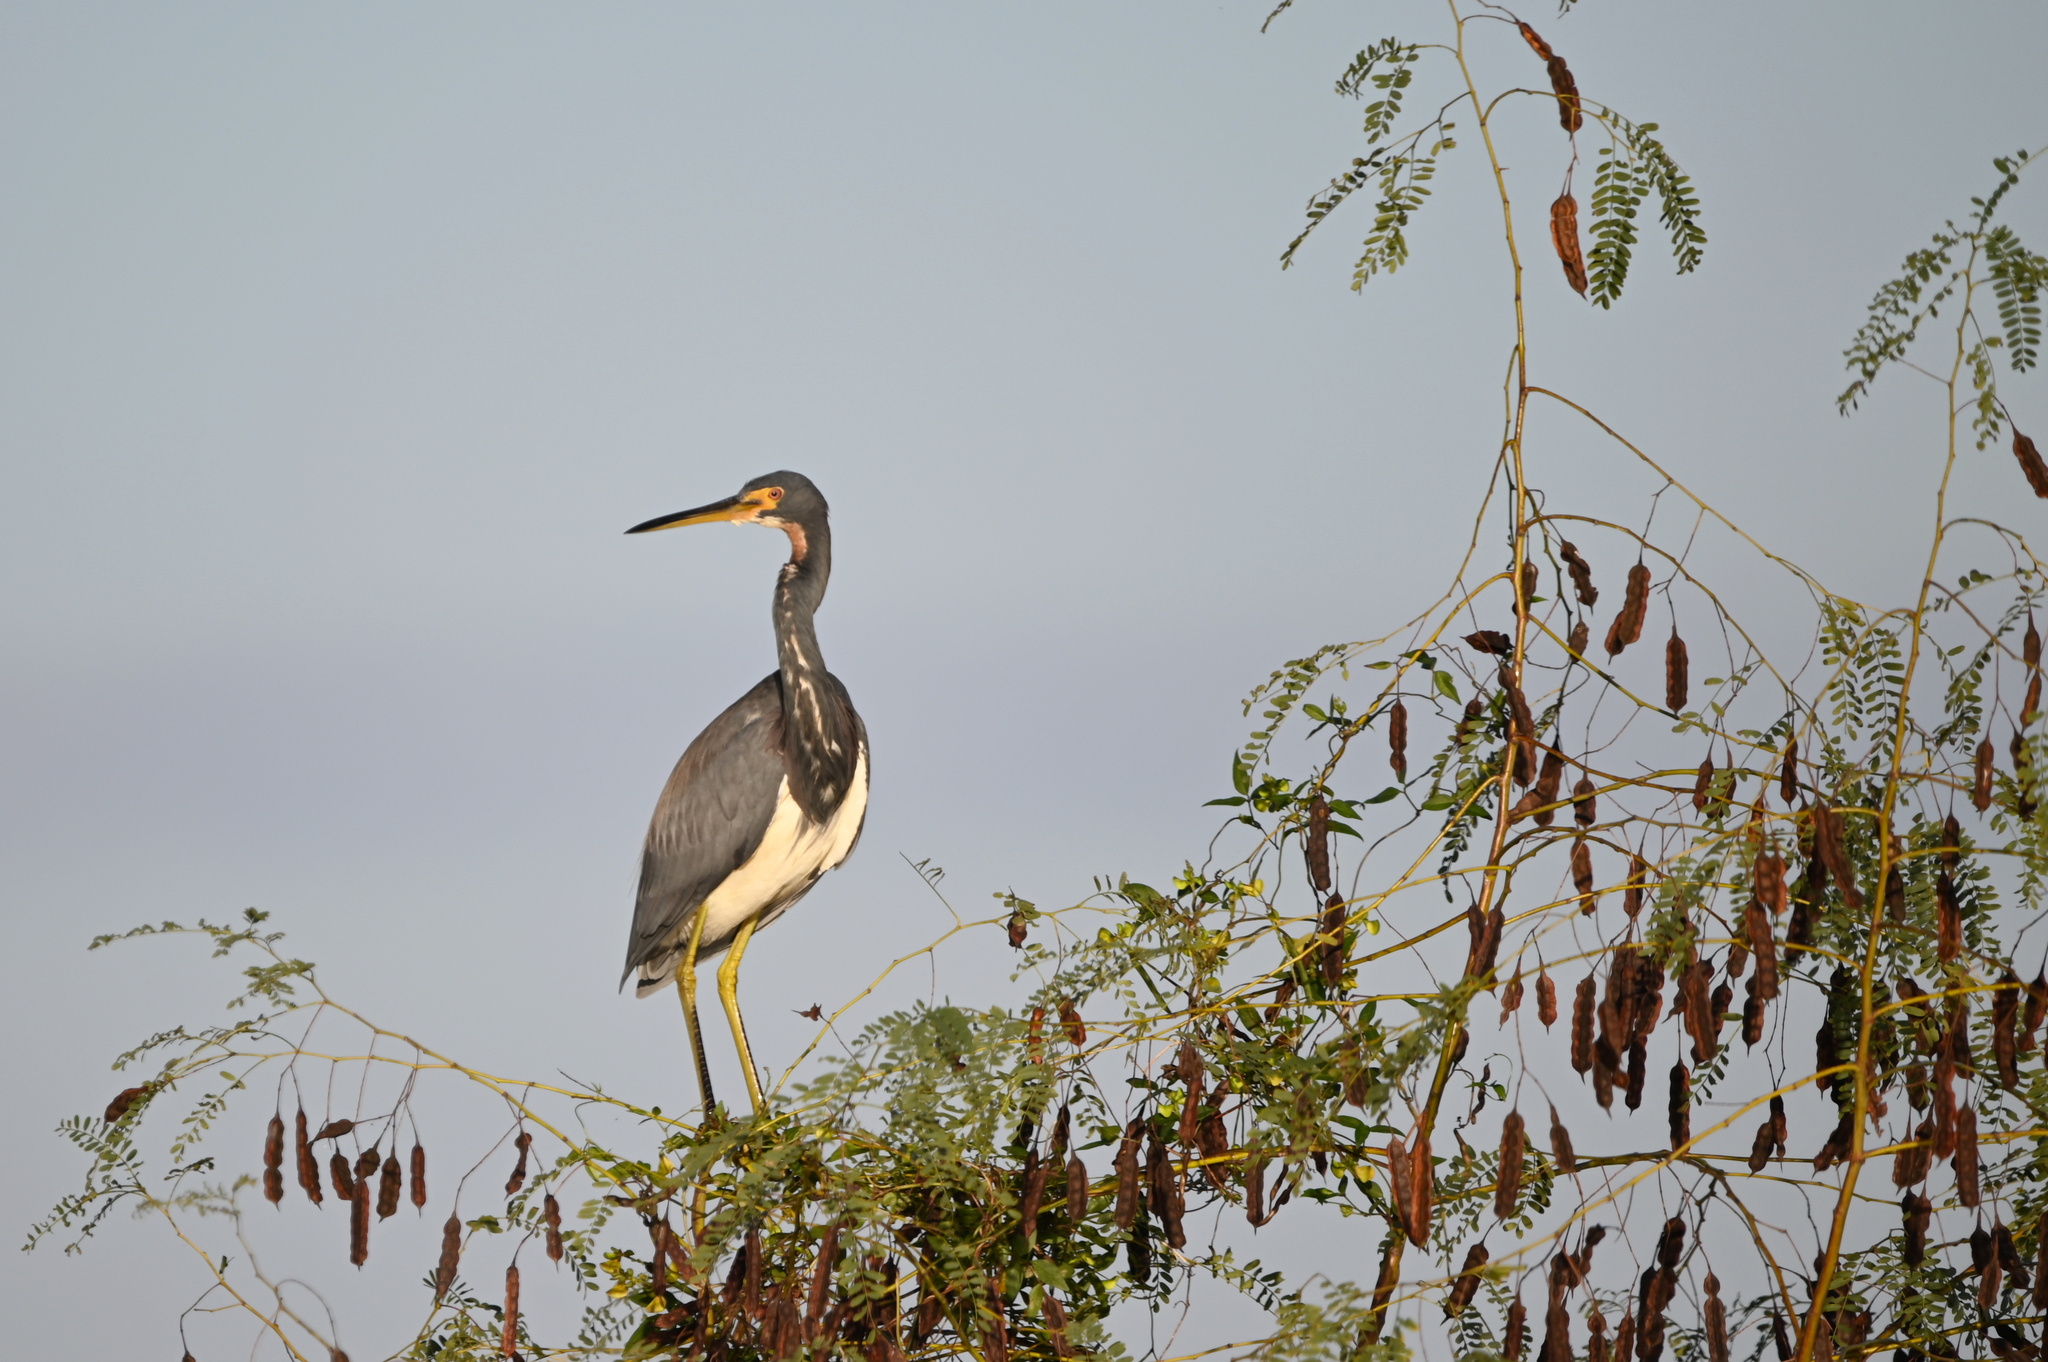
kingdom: Animalia
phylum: Chordata
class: Aves
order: Pelecaniformes
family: Ardeidae
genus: Egretta
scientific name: Egretta tricolor
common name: Tricolored heron
